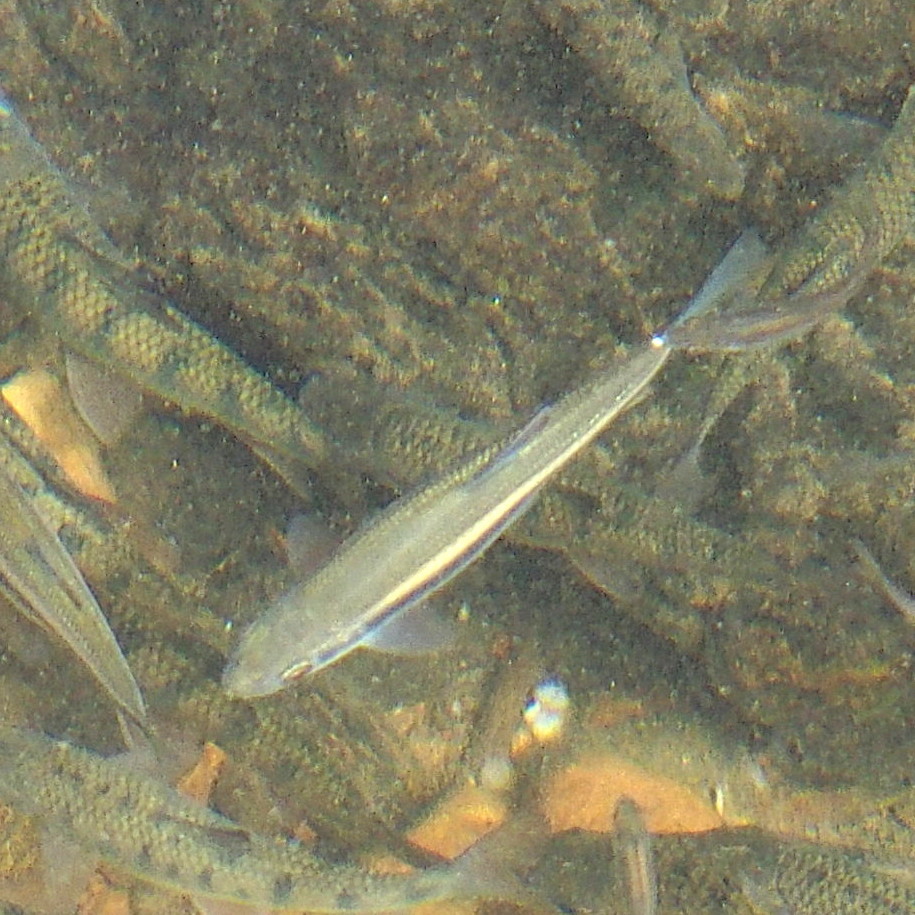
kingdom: Animalia
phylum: Chordata
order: Cypriniformes
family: Cyprinidae
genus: Candidia
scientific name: Candidia barbata
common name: Lake candidus dace
